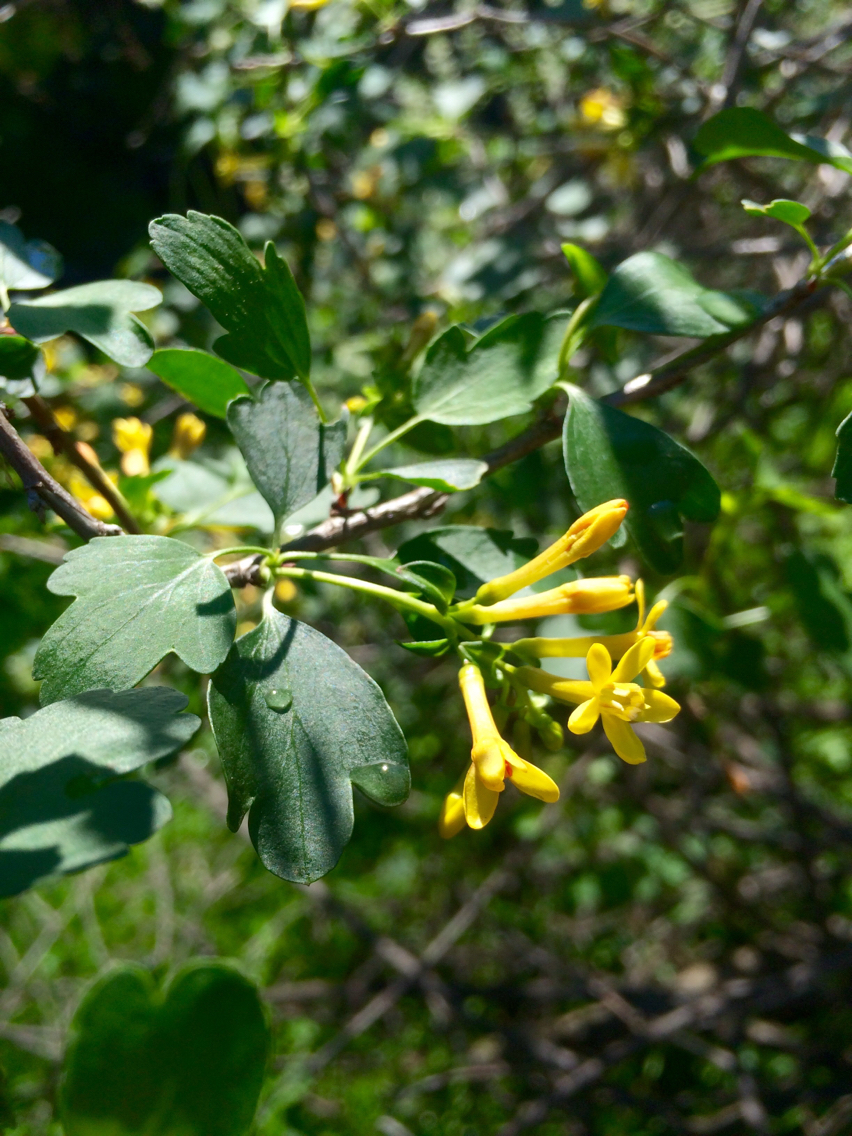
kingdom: Plantae
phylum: Tracheophyta
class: Magnoliopsida
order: Saxifragales
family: Grossulariaceae
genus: Ribes
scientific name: Ribes aureum
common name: Golden currant
